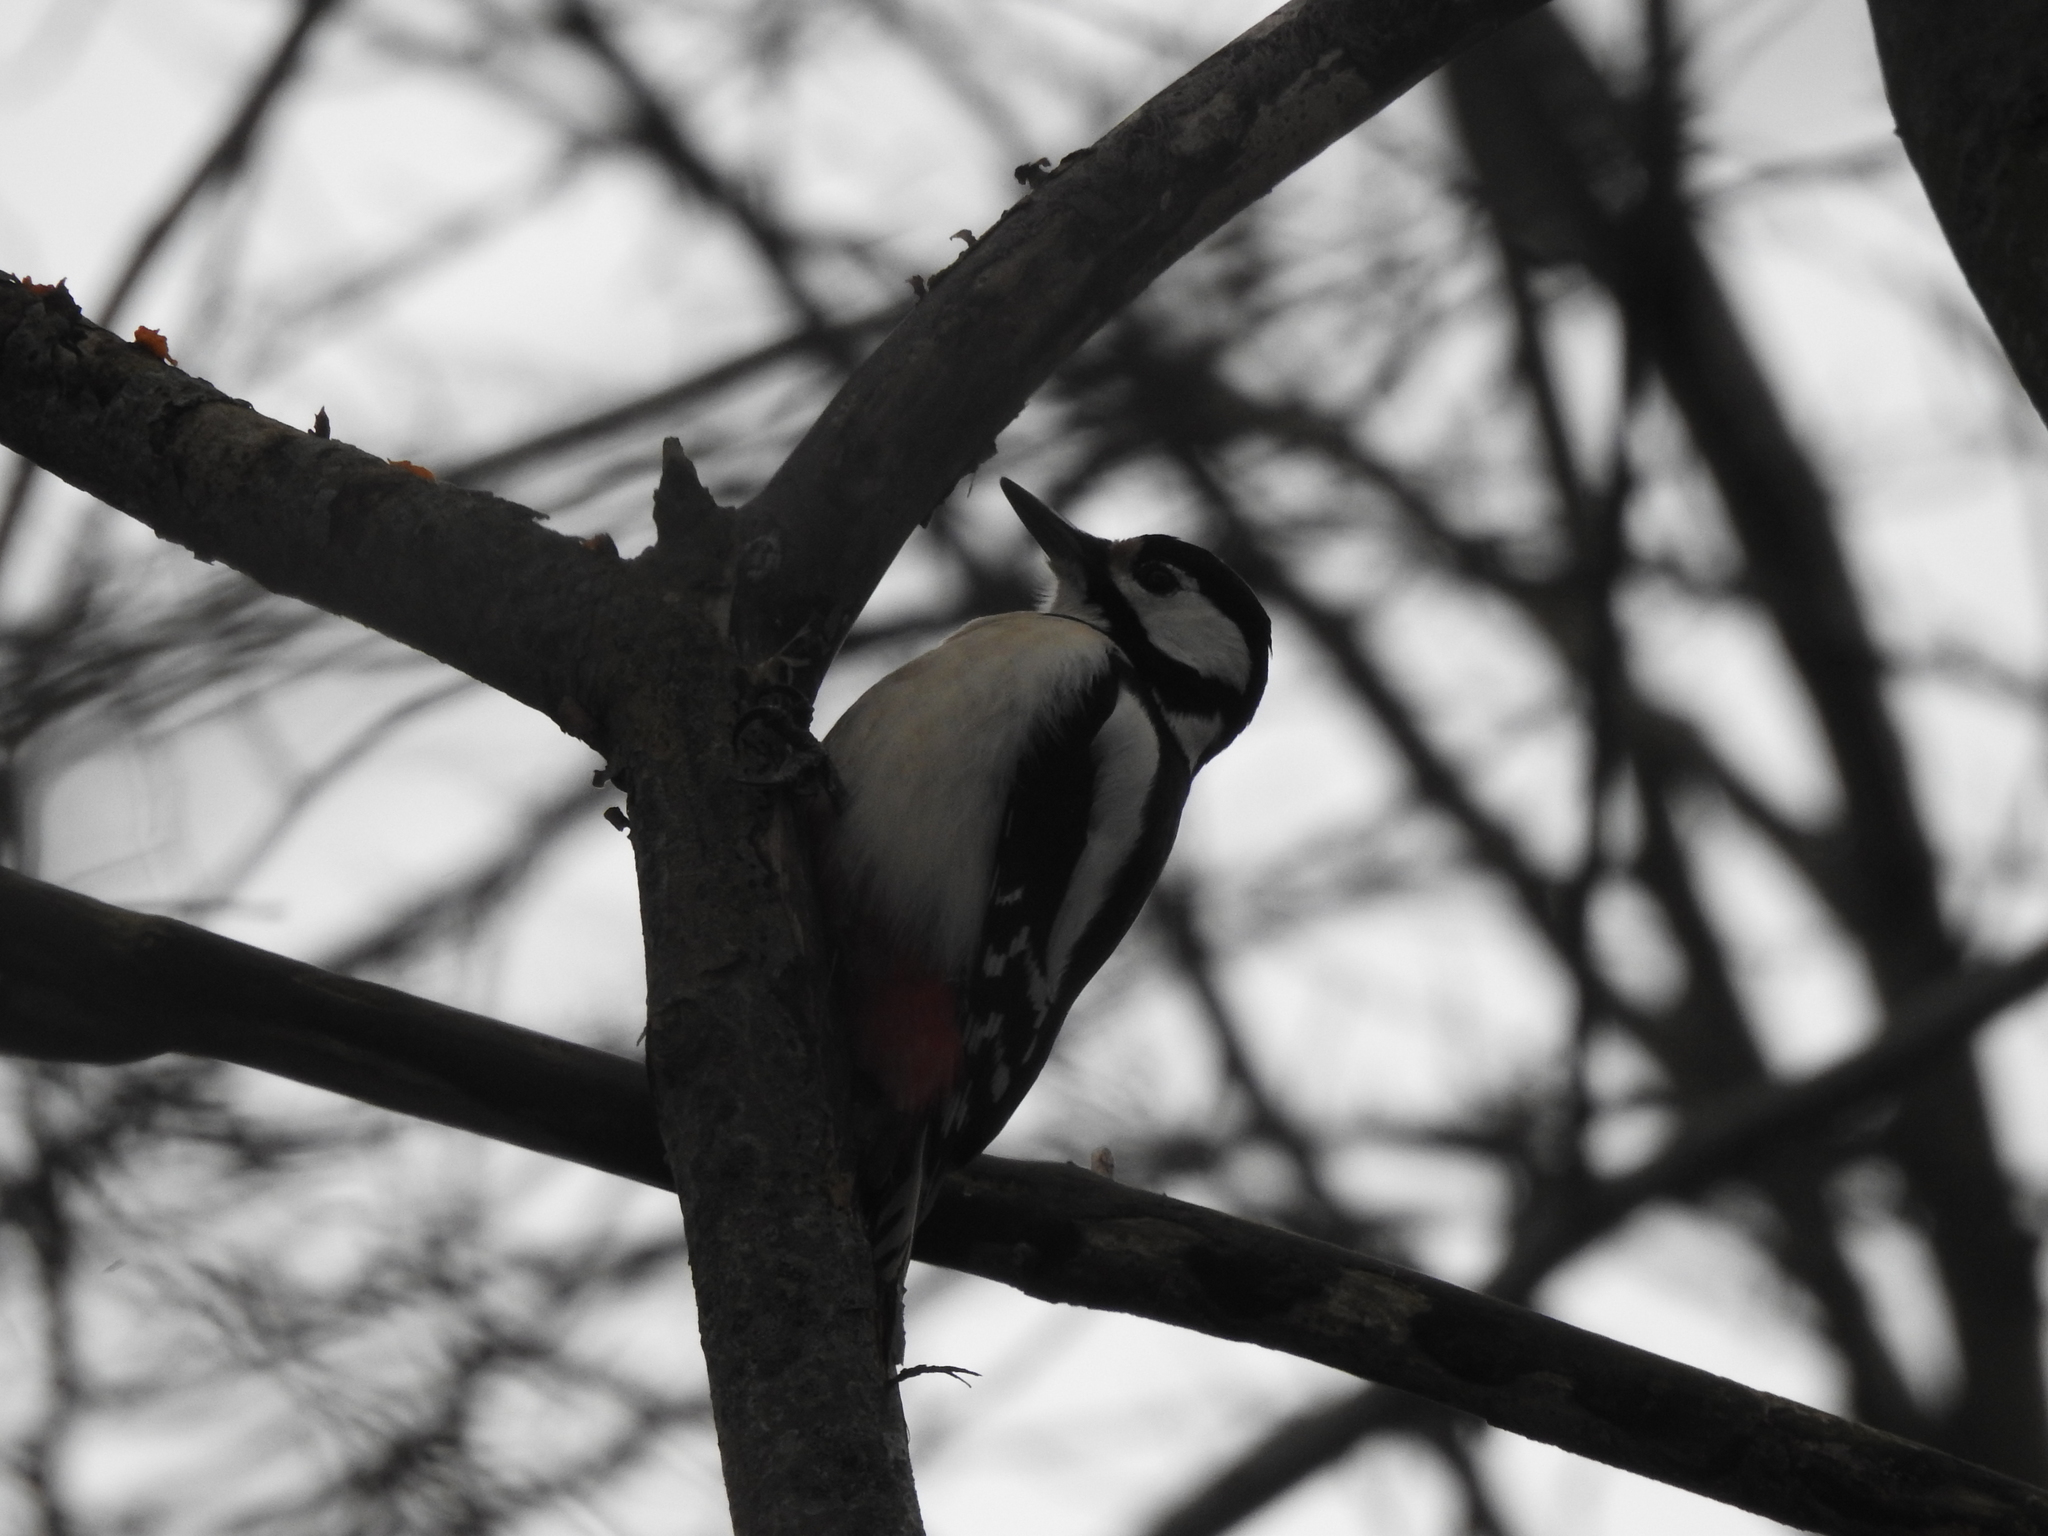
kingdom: Animalia
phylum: Chordata
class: Aves
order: Piciformes
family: Picidae
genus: Dendrocopos
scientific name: Dendrocopos major
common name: Great spotted woodpecker
